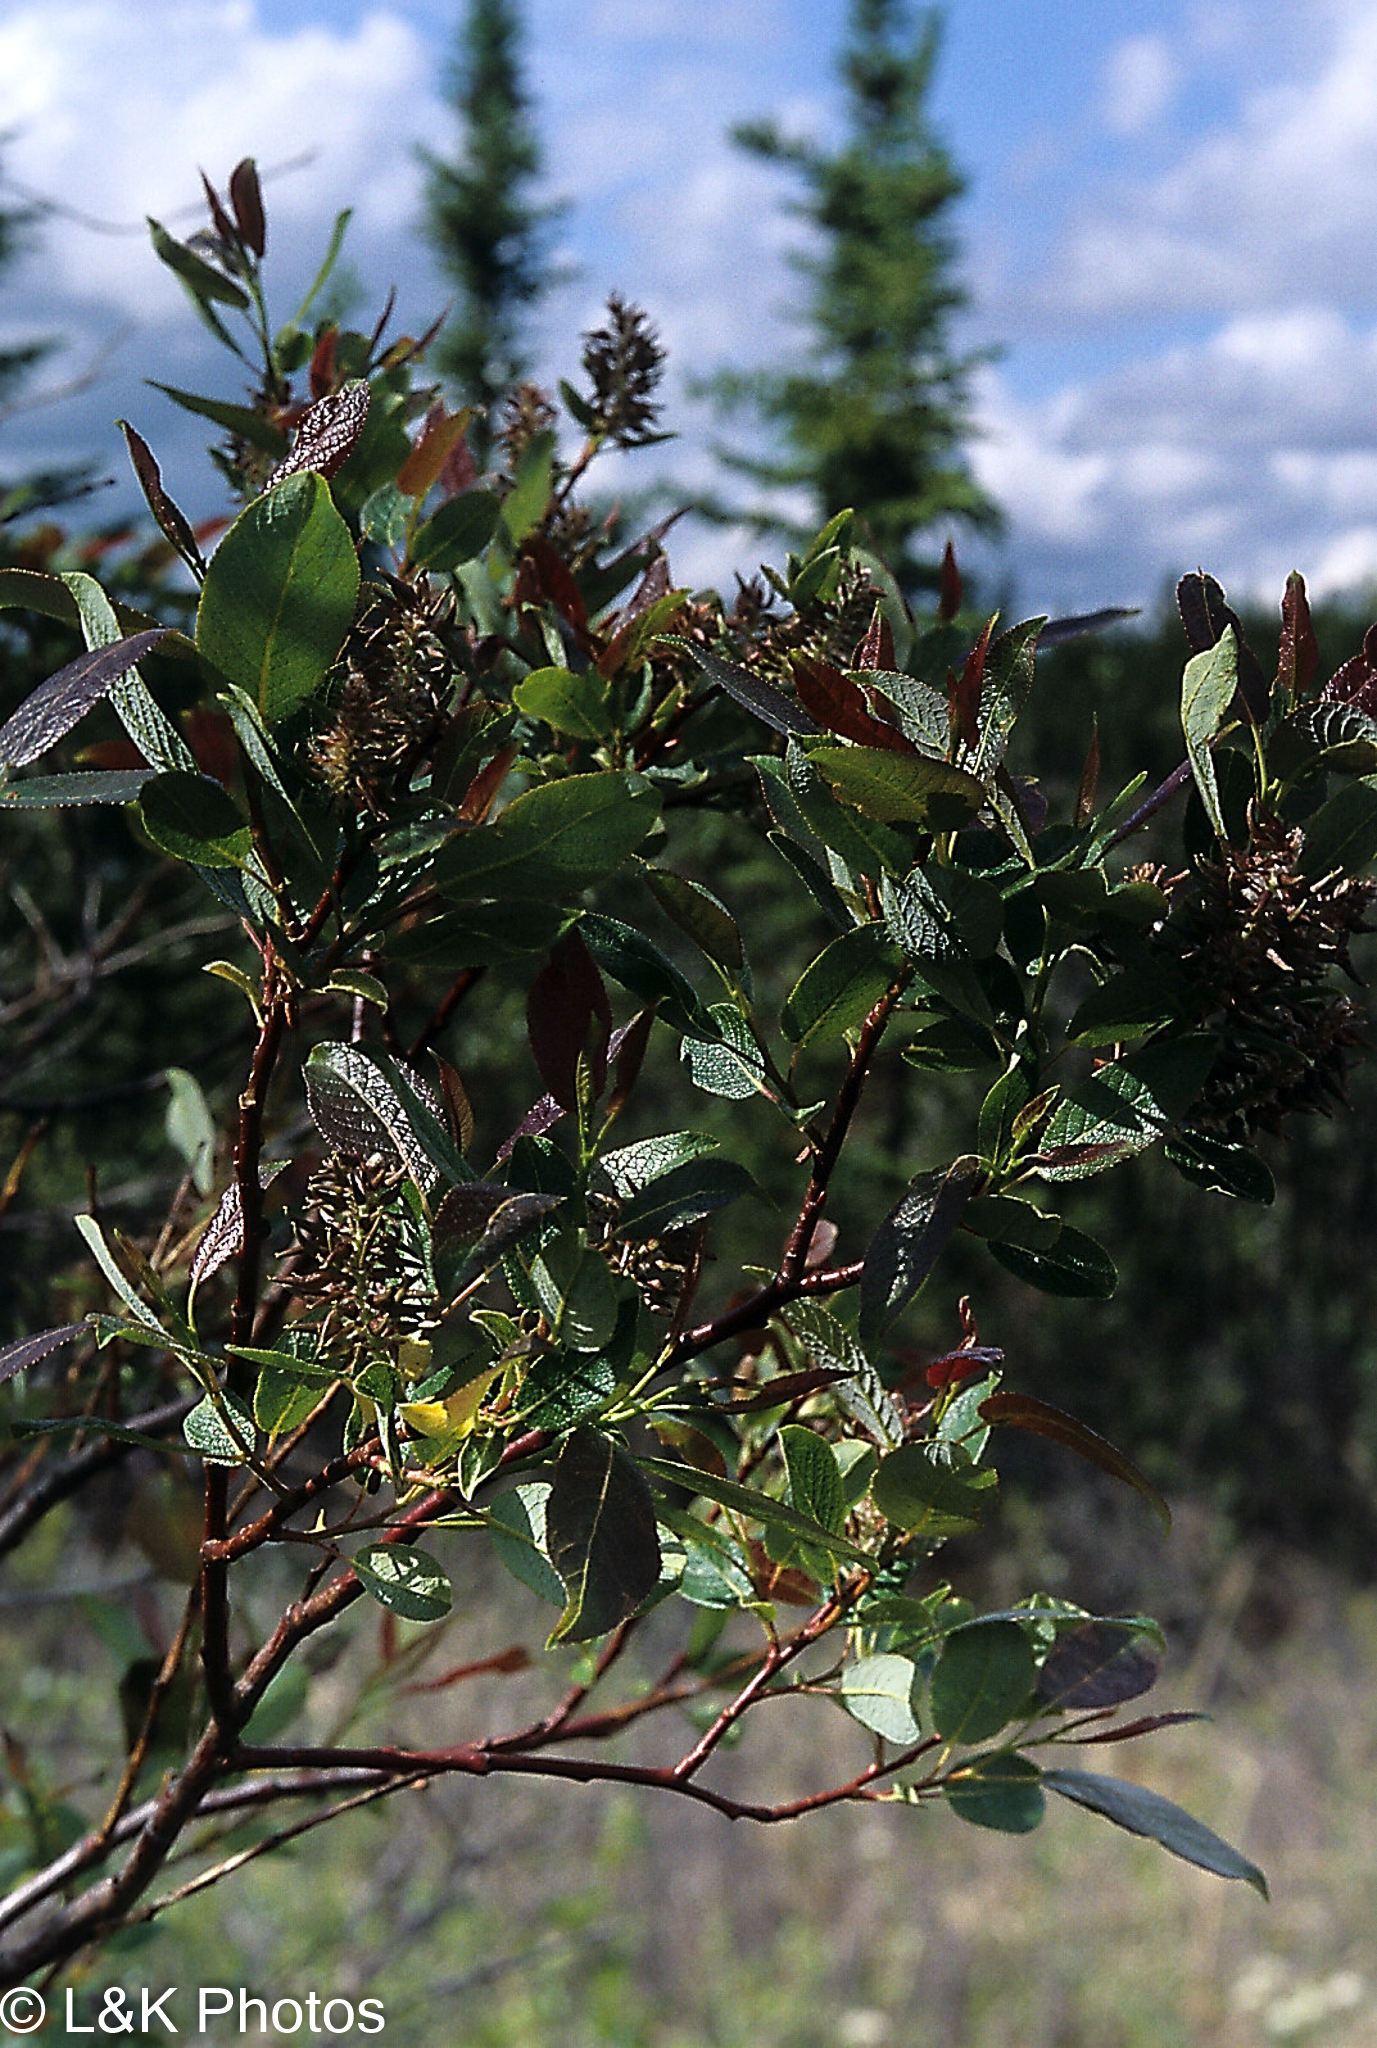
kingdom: Plantae
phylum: Tracheophyta
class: Magnoliopsida
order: Malpighiales
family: Salicaceae
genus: Salix
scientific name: Salix pyrifolia
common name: Balsam willow
